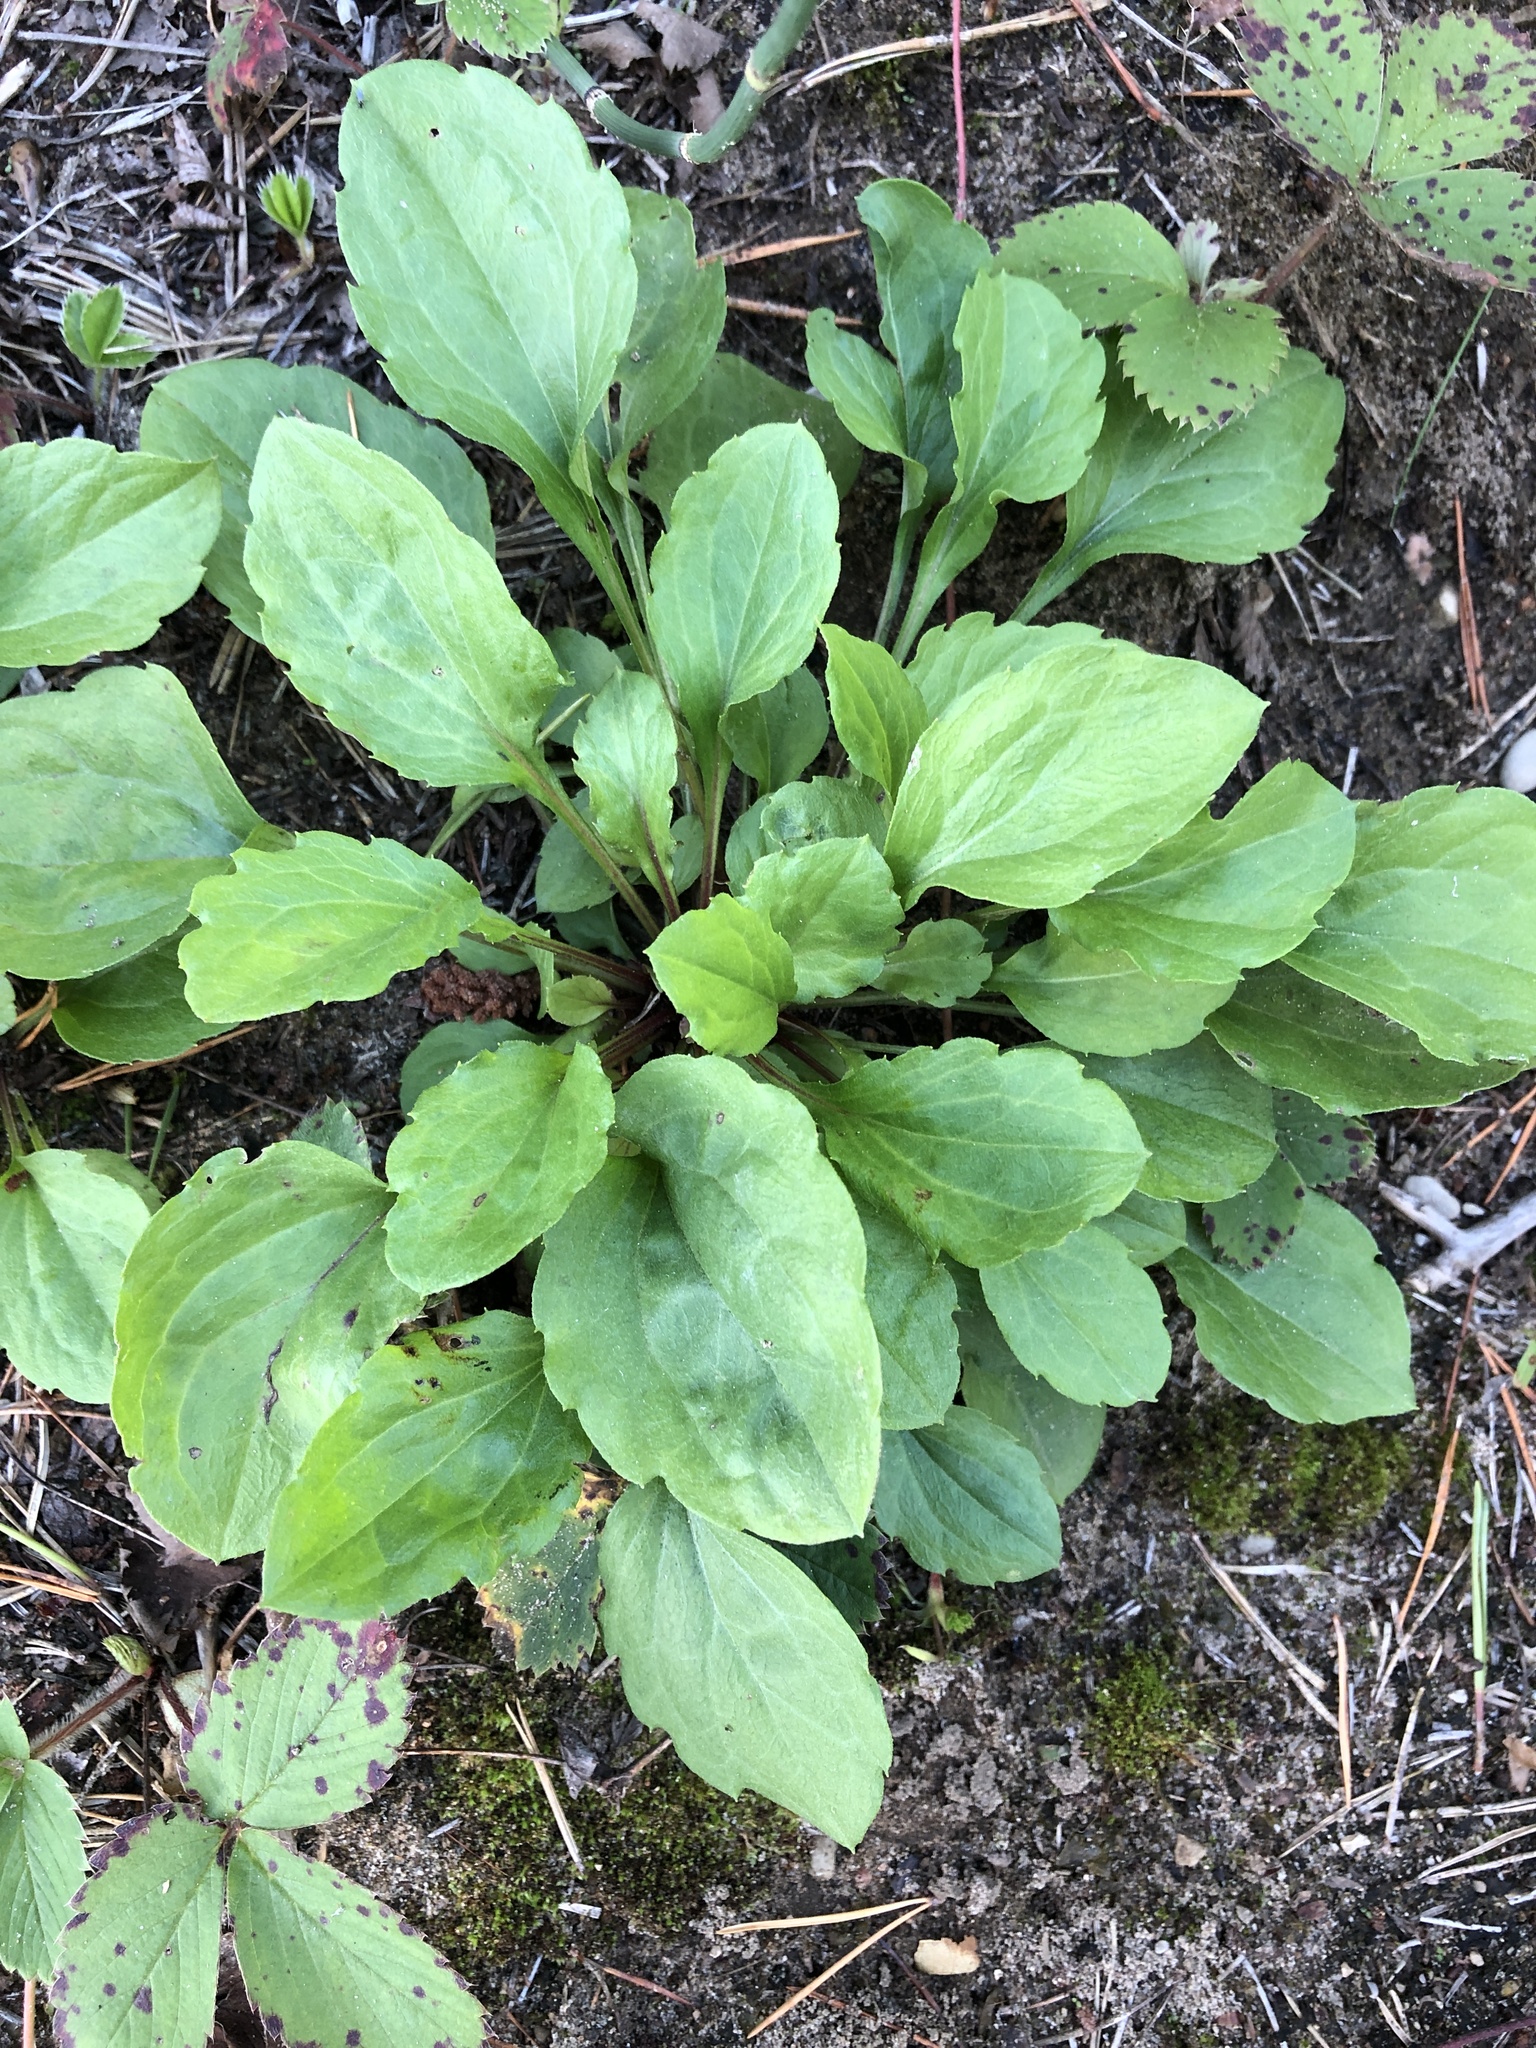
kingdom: Plantae
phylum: Tracheophyta
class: Magnoliopsida
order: Lamiales
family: Plantaginaceae
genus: Plantago
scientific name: Plantago rugelii
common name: American plantain
